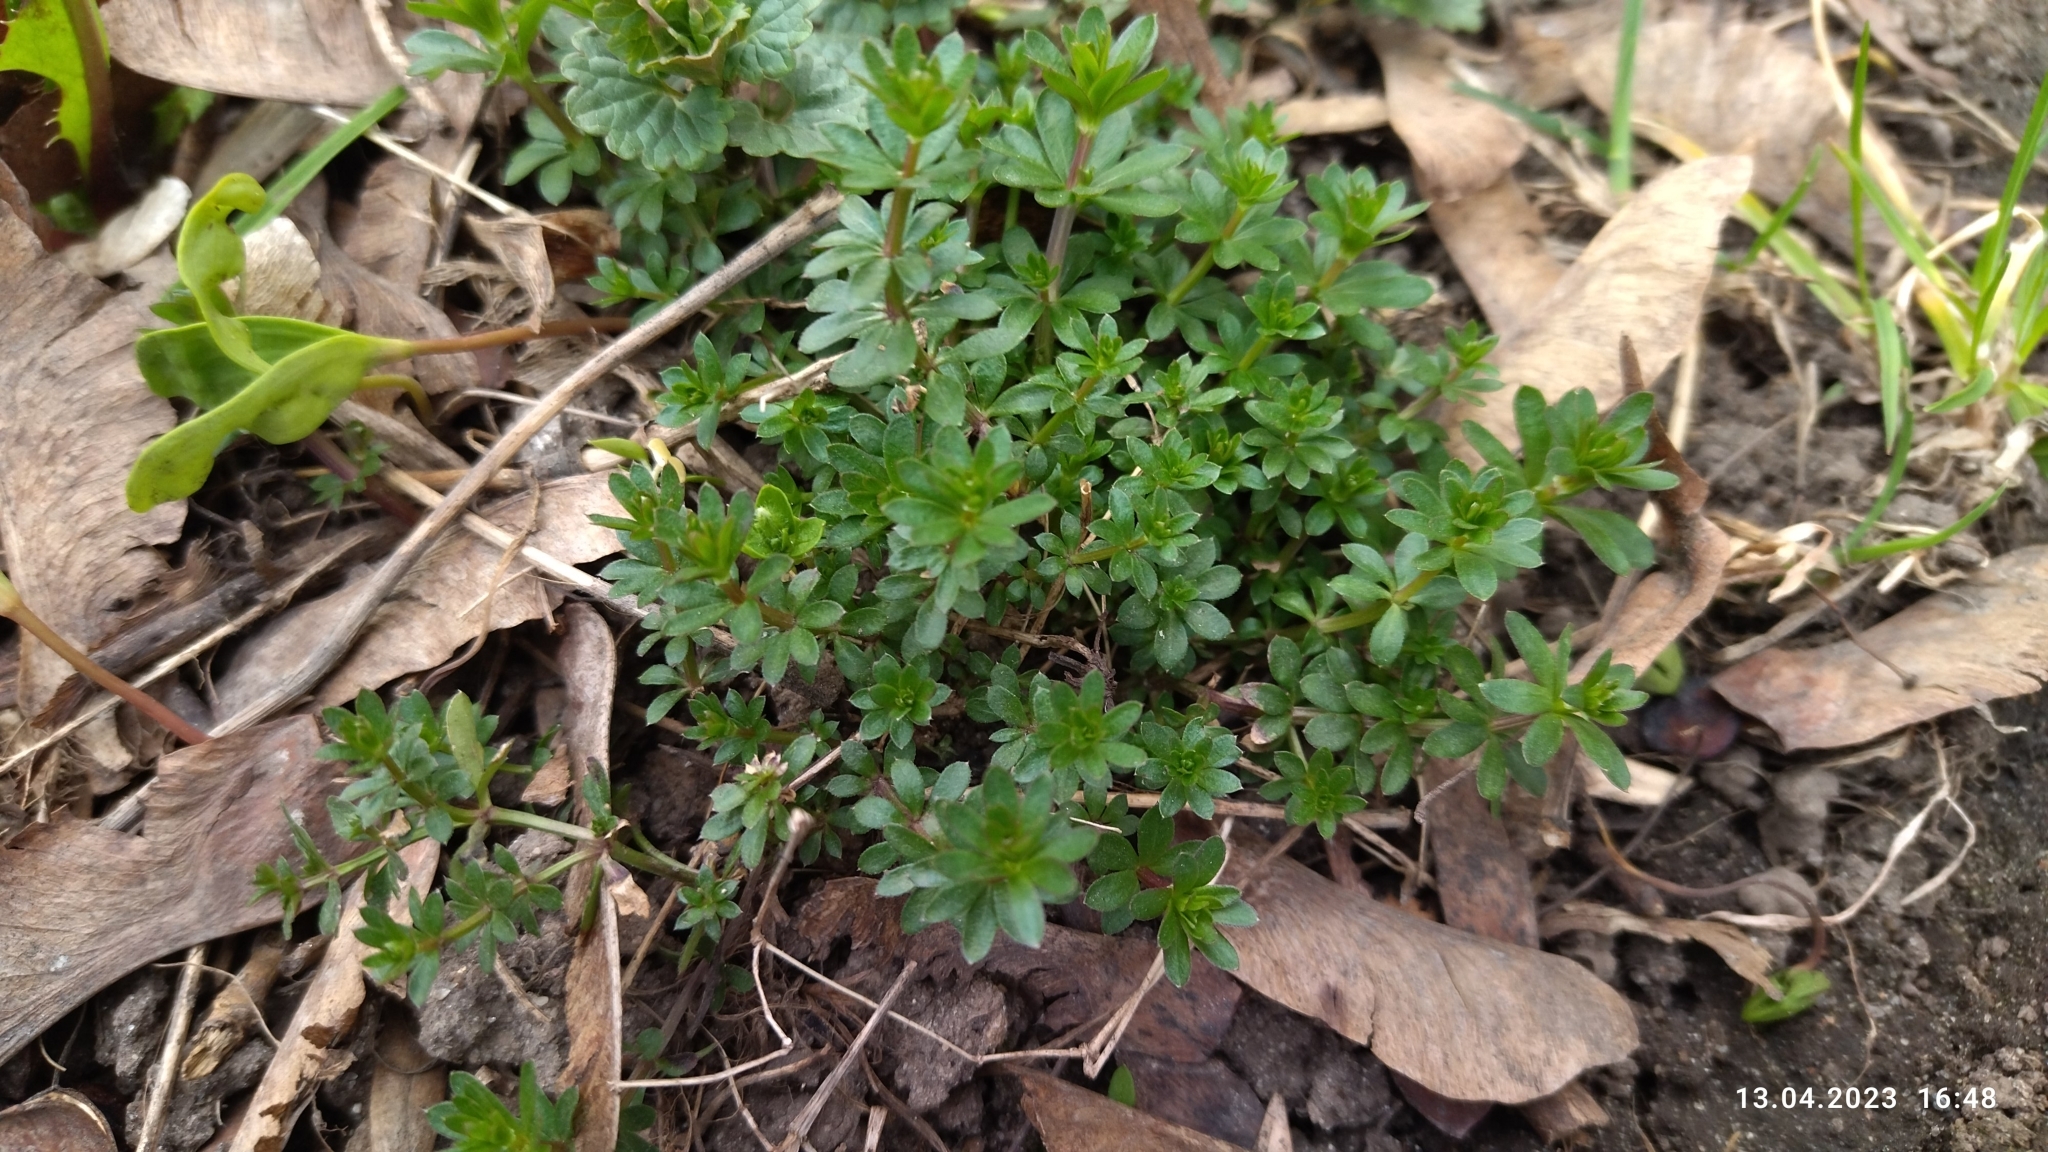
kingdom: Plantae
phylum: Tracheophyta
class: Magnoliopsida
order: Gentianales
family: Rubiaceae
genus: Galium
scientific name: Galium mollugo
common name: Hedge bedstraw
